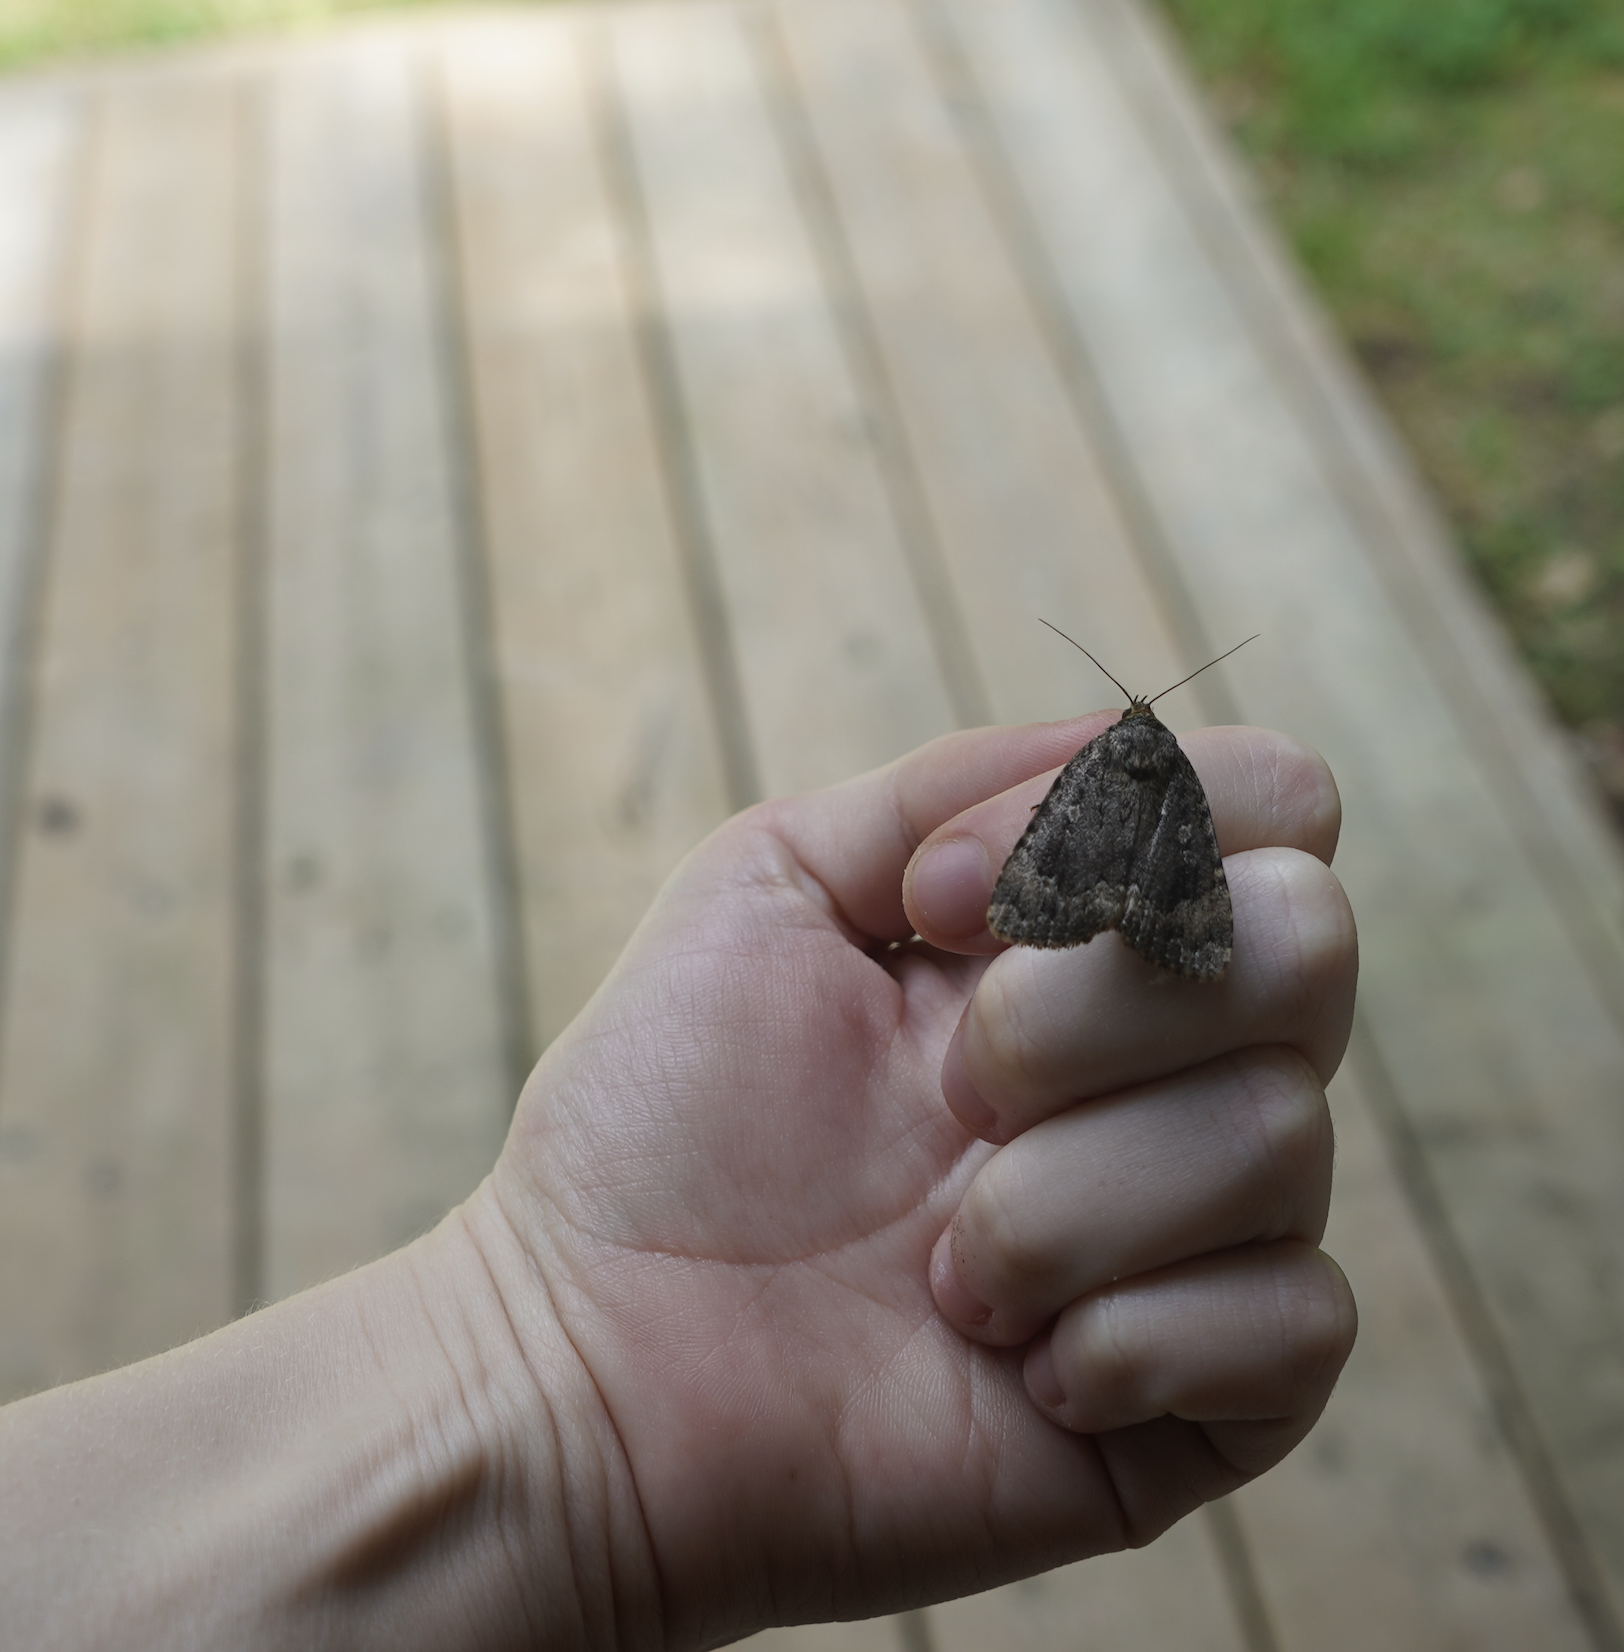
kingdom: Animalia
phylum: Arthropoda
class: Insecta
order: Lepidoptera
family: Noctuidae
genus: Amphipyra
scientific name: Amphipyra pyramidoides
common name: American copper underwing
